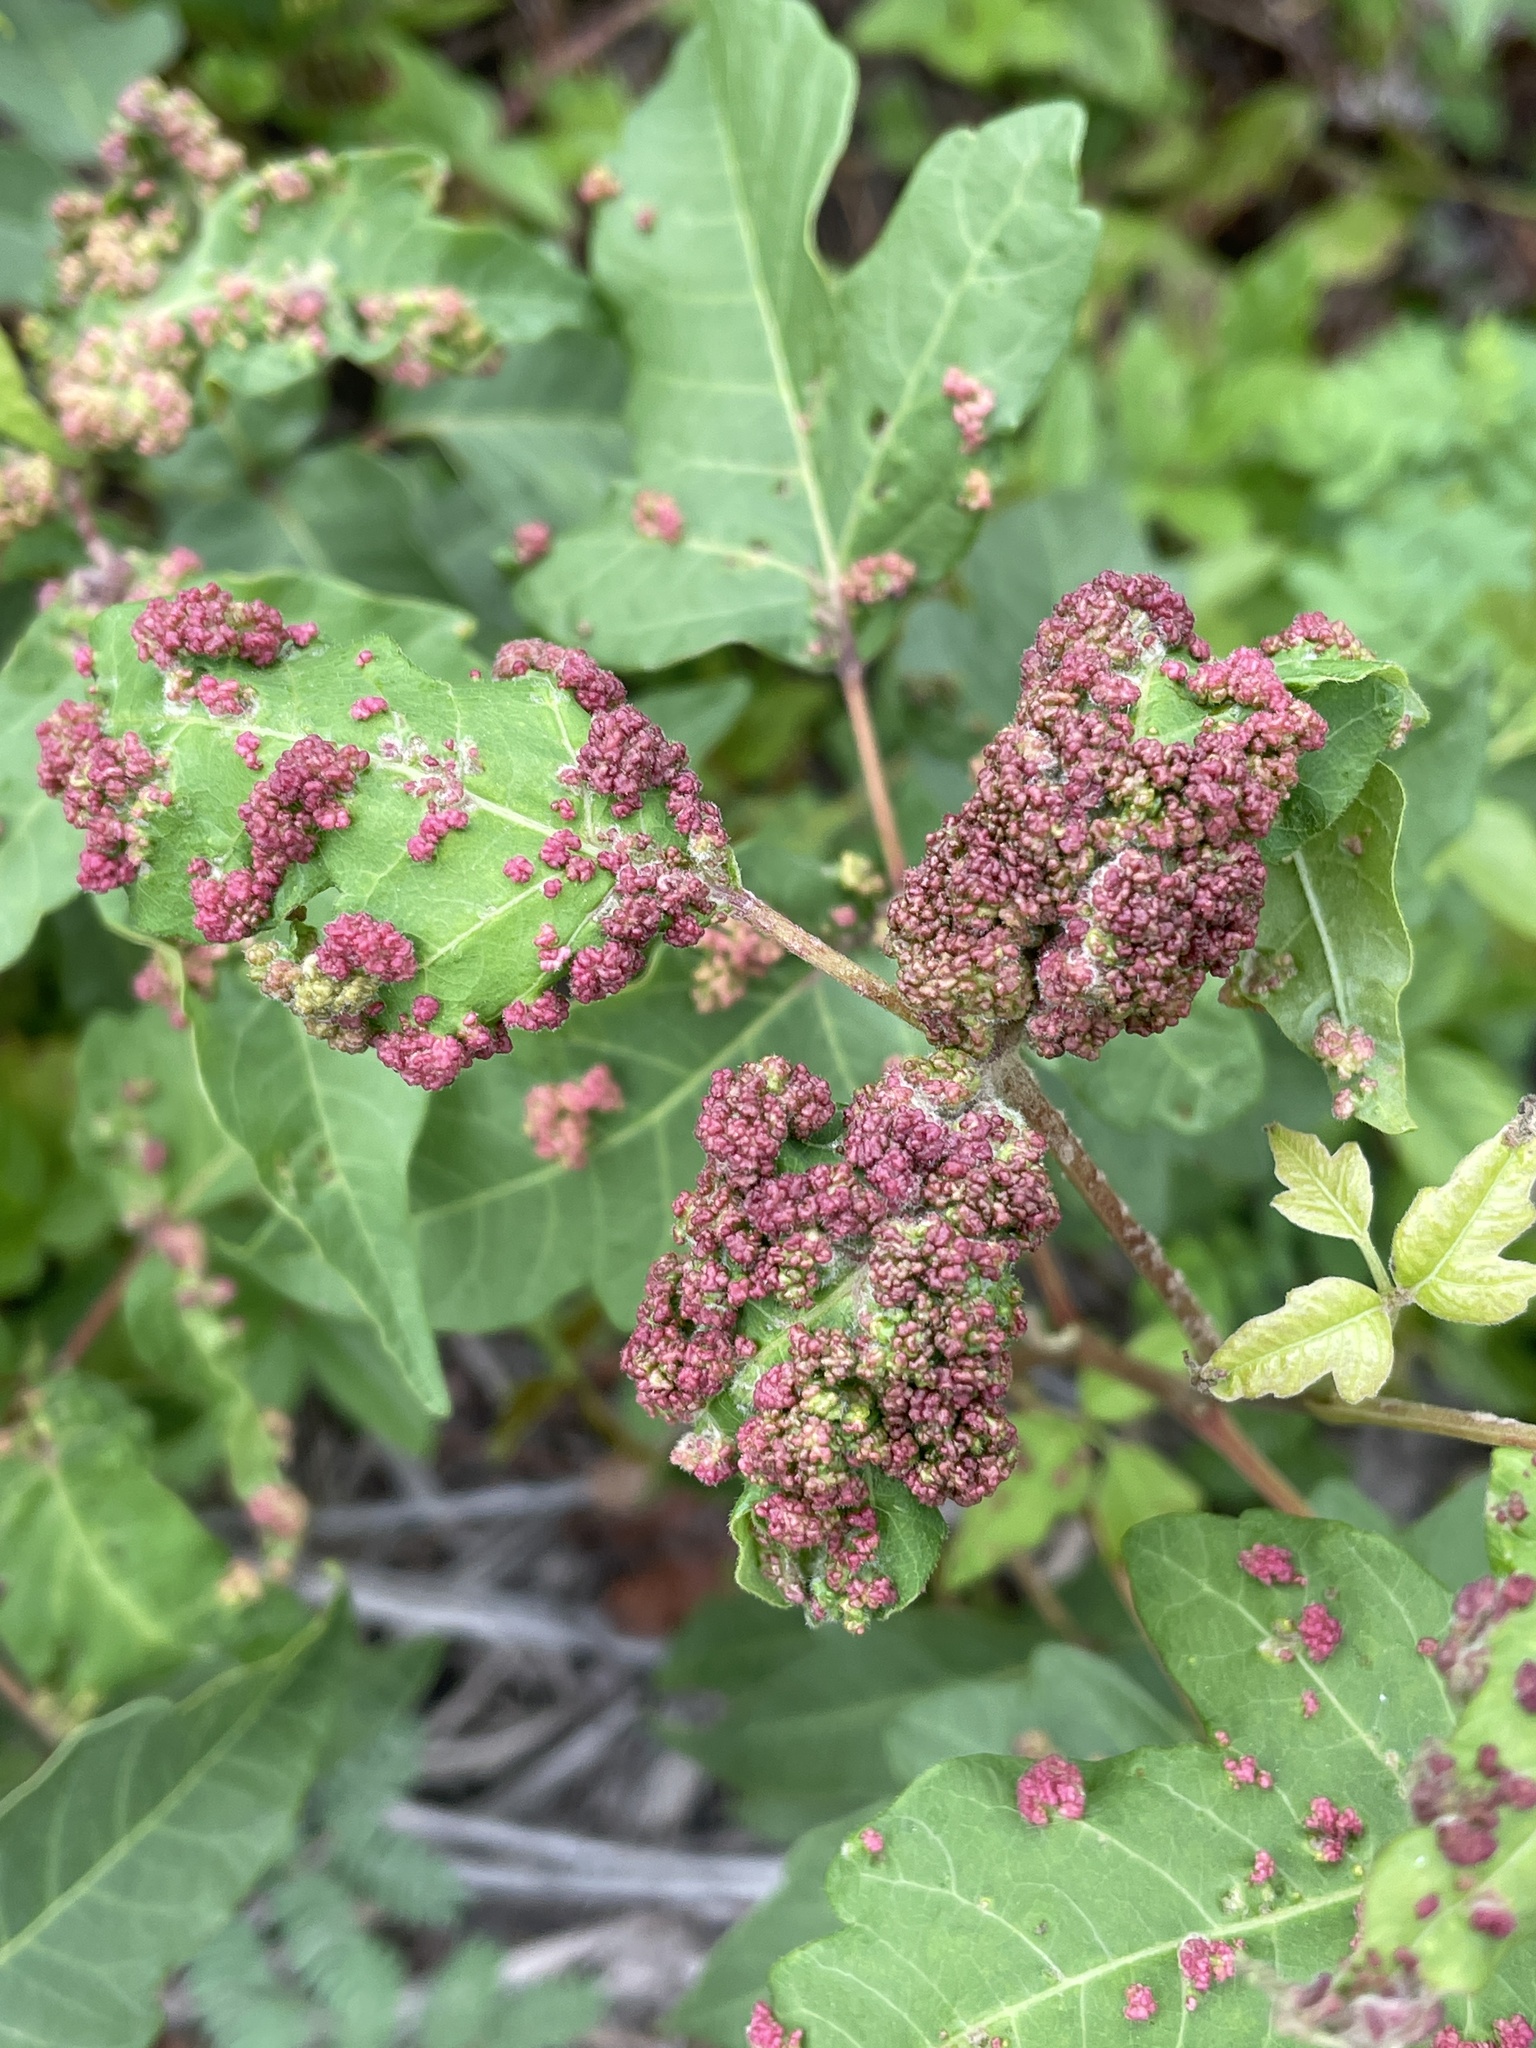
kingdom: Animalia
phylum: Arthropoda
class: Arachnida
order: Trombidiformes
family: Eriophyidae
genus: Aculops
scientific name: Aculops
